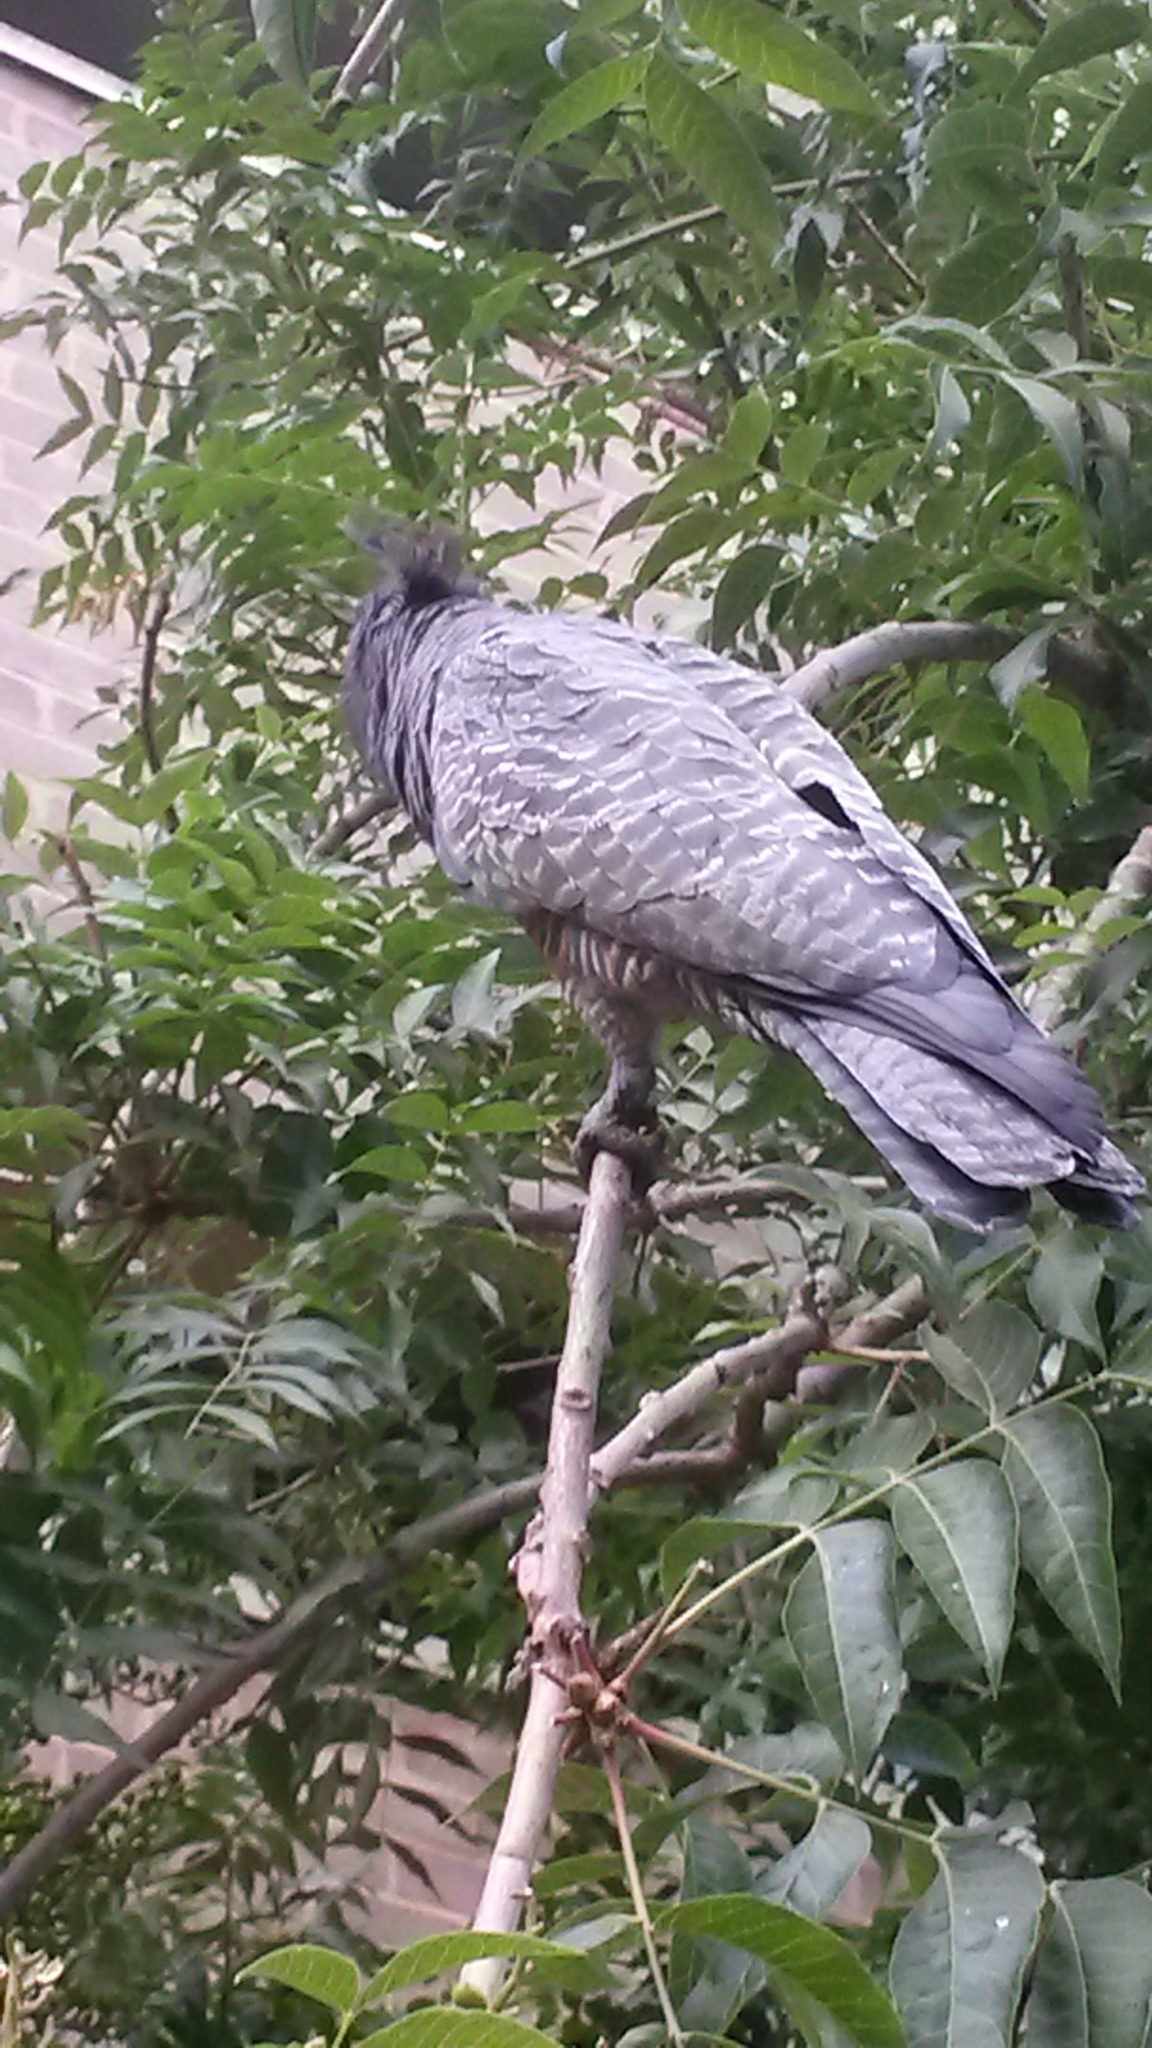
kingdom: Animalia
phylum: Chordata
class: Aves
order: Psittaciformes
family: Psittacidae
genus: Callocephalon
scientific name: Callocephalon fimbriatum
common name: Gang-gang cockatoo
